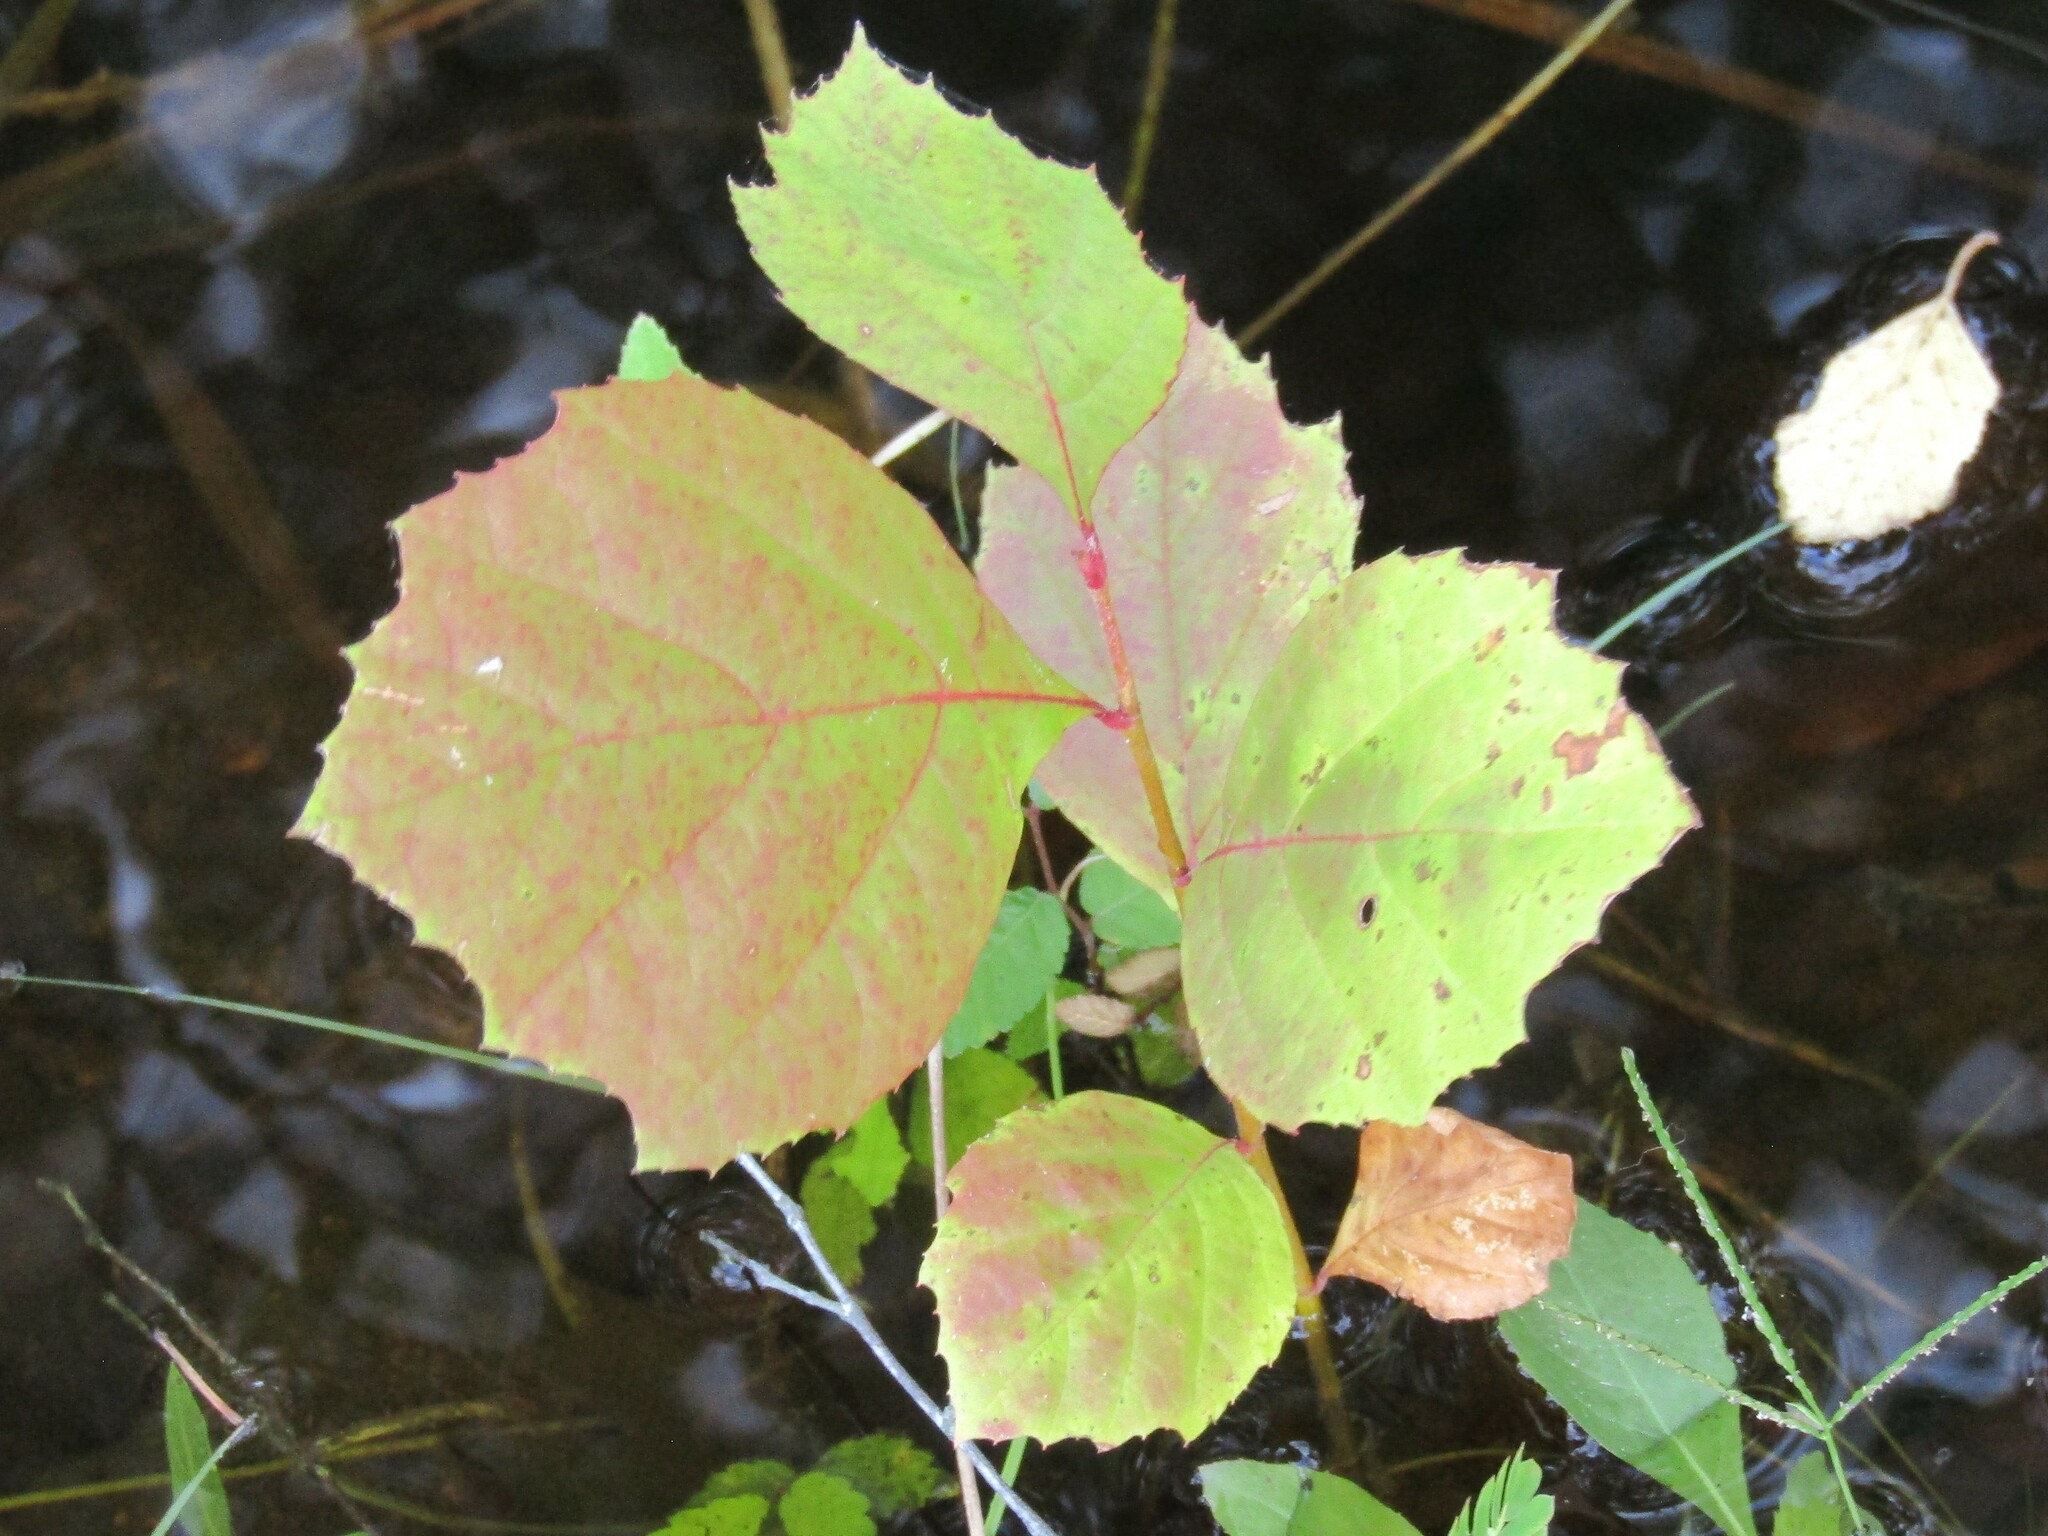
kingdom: Plantae
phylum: Tracheophyta
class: Magnoliopsida
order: Proteales
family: Platanaceae
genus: Platanus
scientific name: Platanus occidentalis
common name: American sycamore
